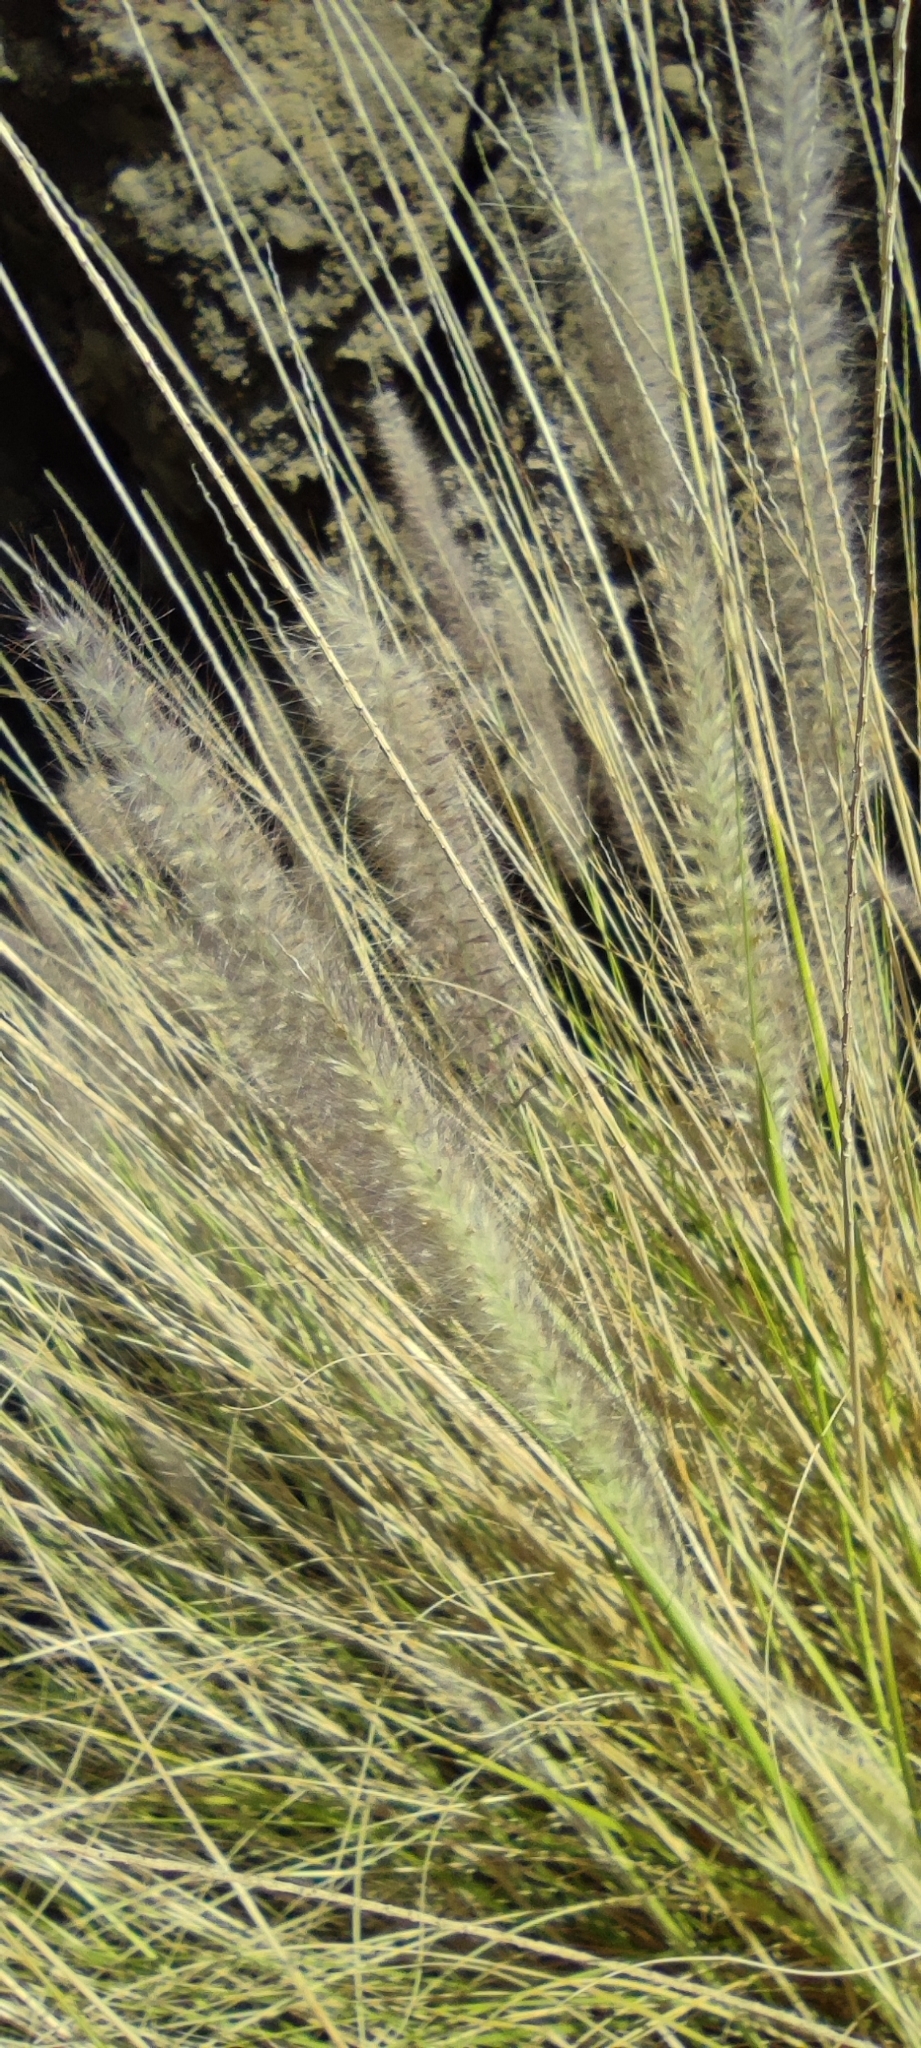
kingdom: Plantae
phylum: Tracheophyta
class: Liliopsida
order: Poales
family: Poaceae
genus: Cenchrus
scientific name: Cenchrus setaceus
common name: Crimson fountaingrass
